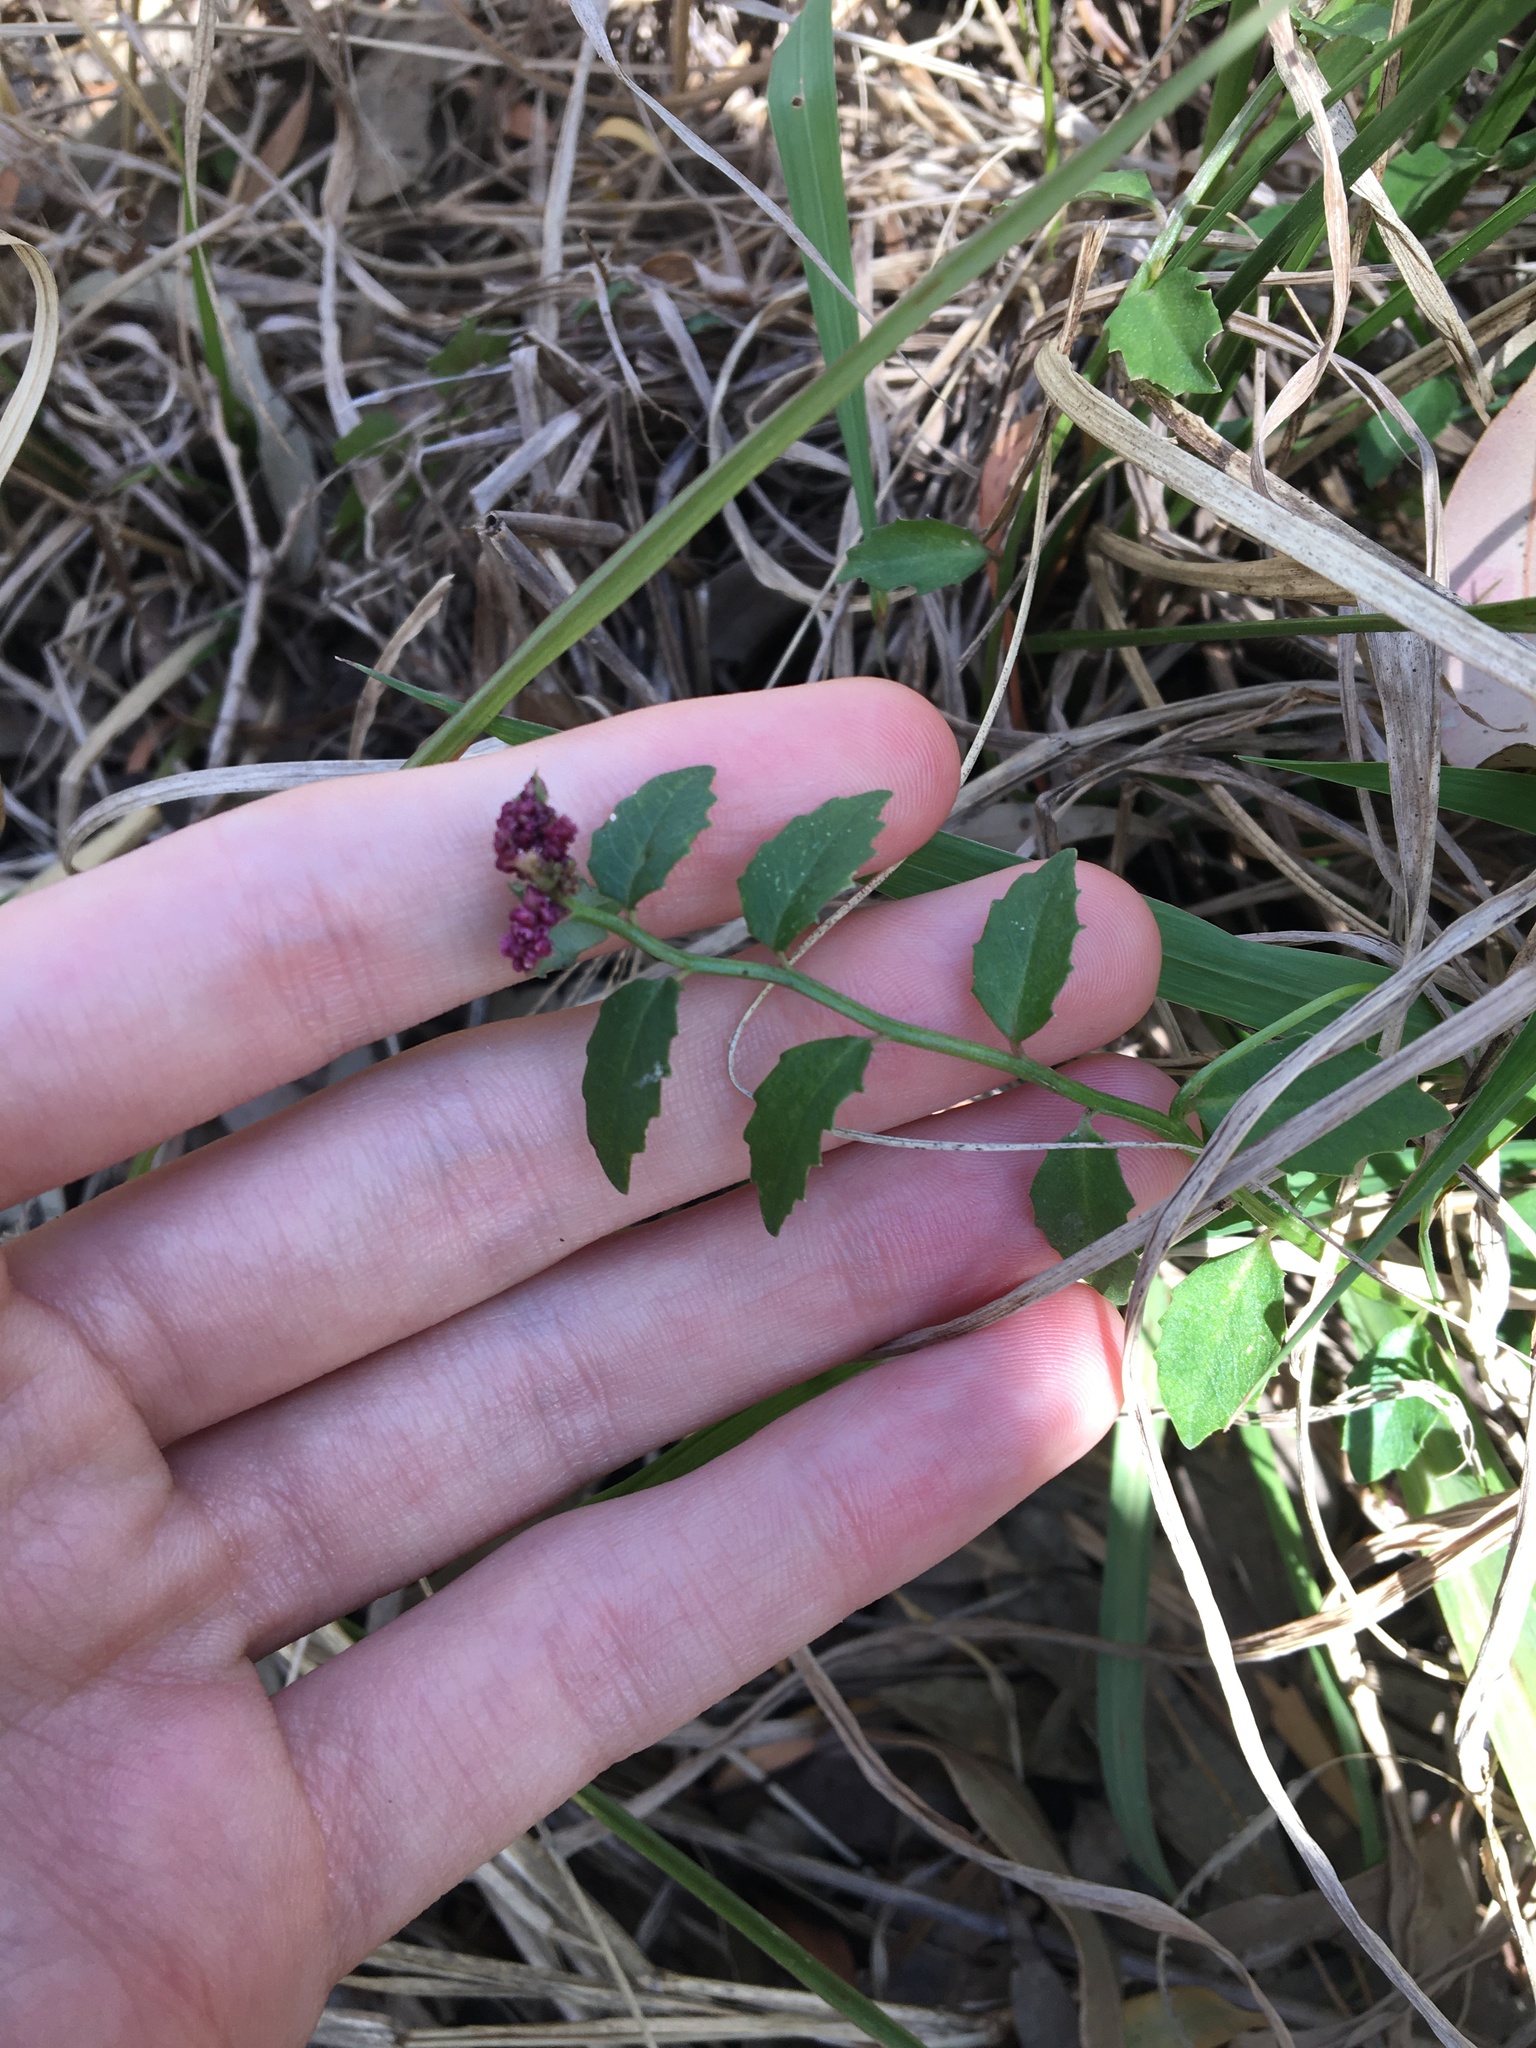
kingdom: Plantae
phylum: Tracheophyta
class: Magnoliopsida
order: Asterales
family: Campanulaceae
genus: Lobelia
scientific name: Lobelia purpurascens
